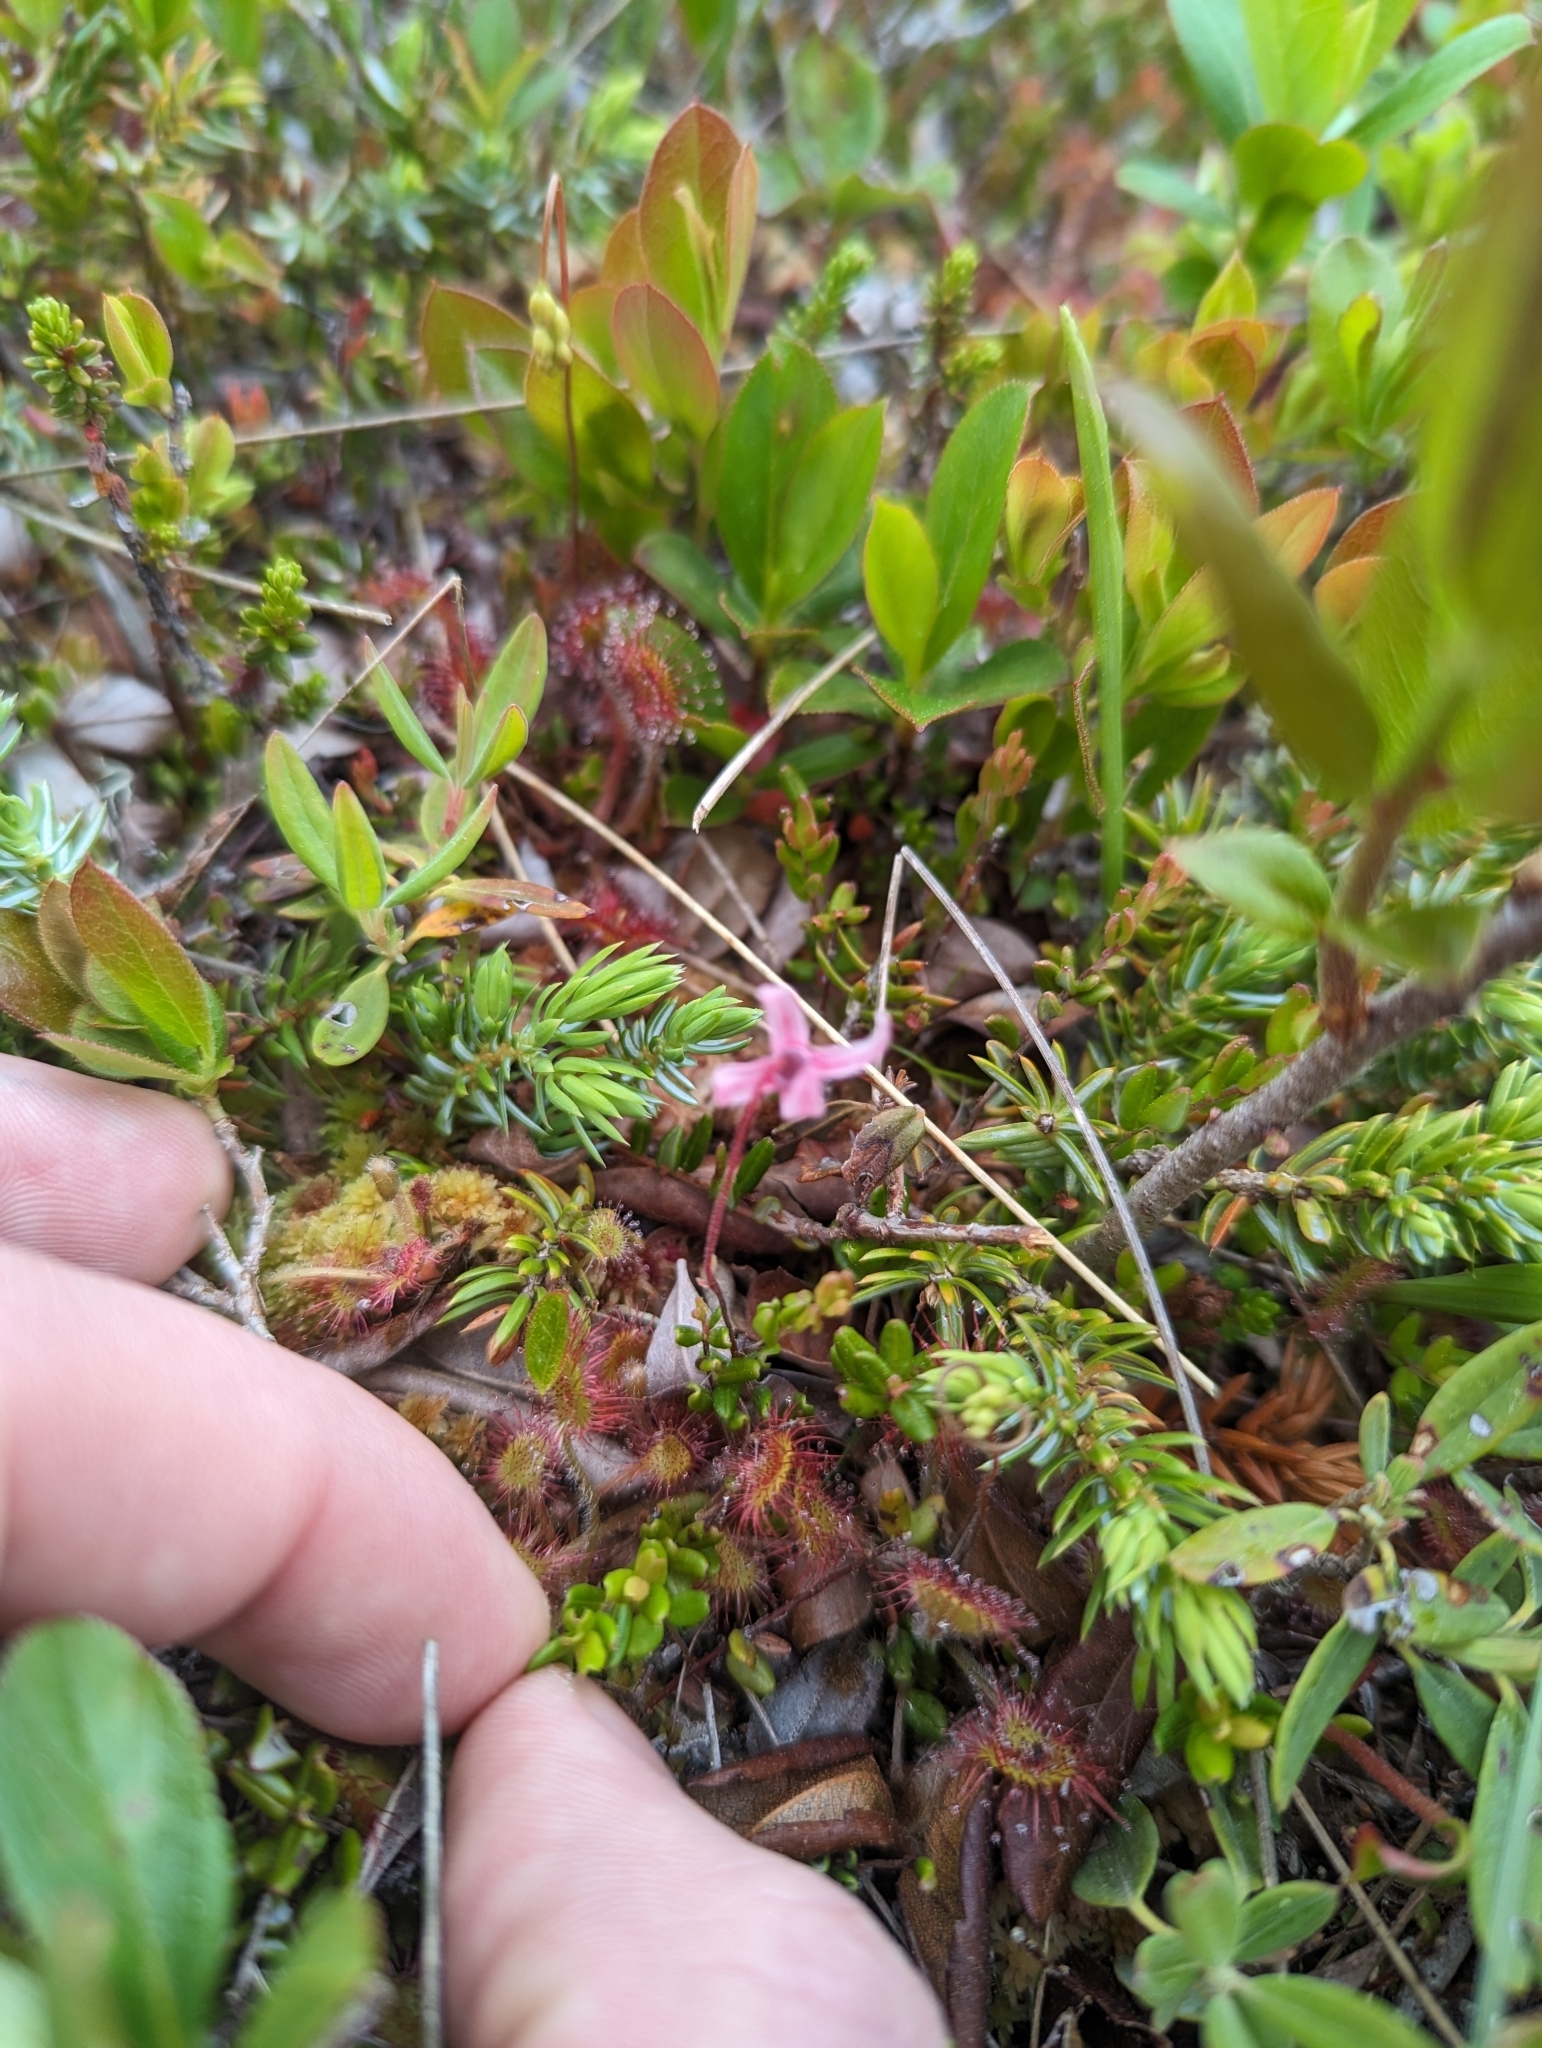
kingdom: Plantae
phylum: Tracheophyta
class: Magnoliopsida
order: Ericales
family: Ericaceae
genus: Vaccinium
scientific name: Vaccinium oxycoccos
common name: Cranberry
